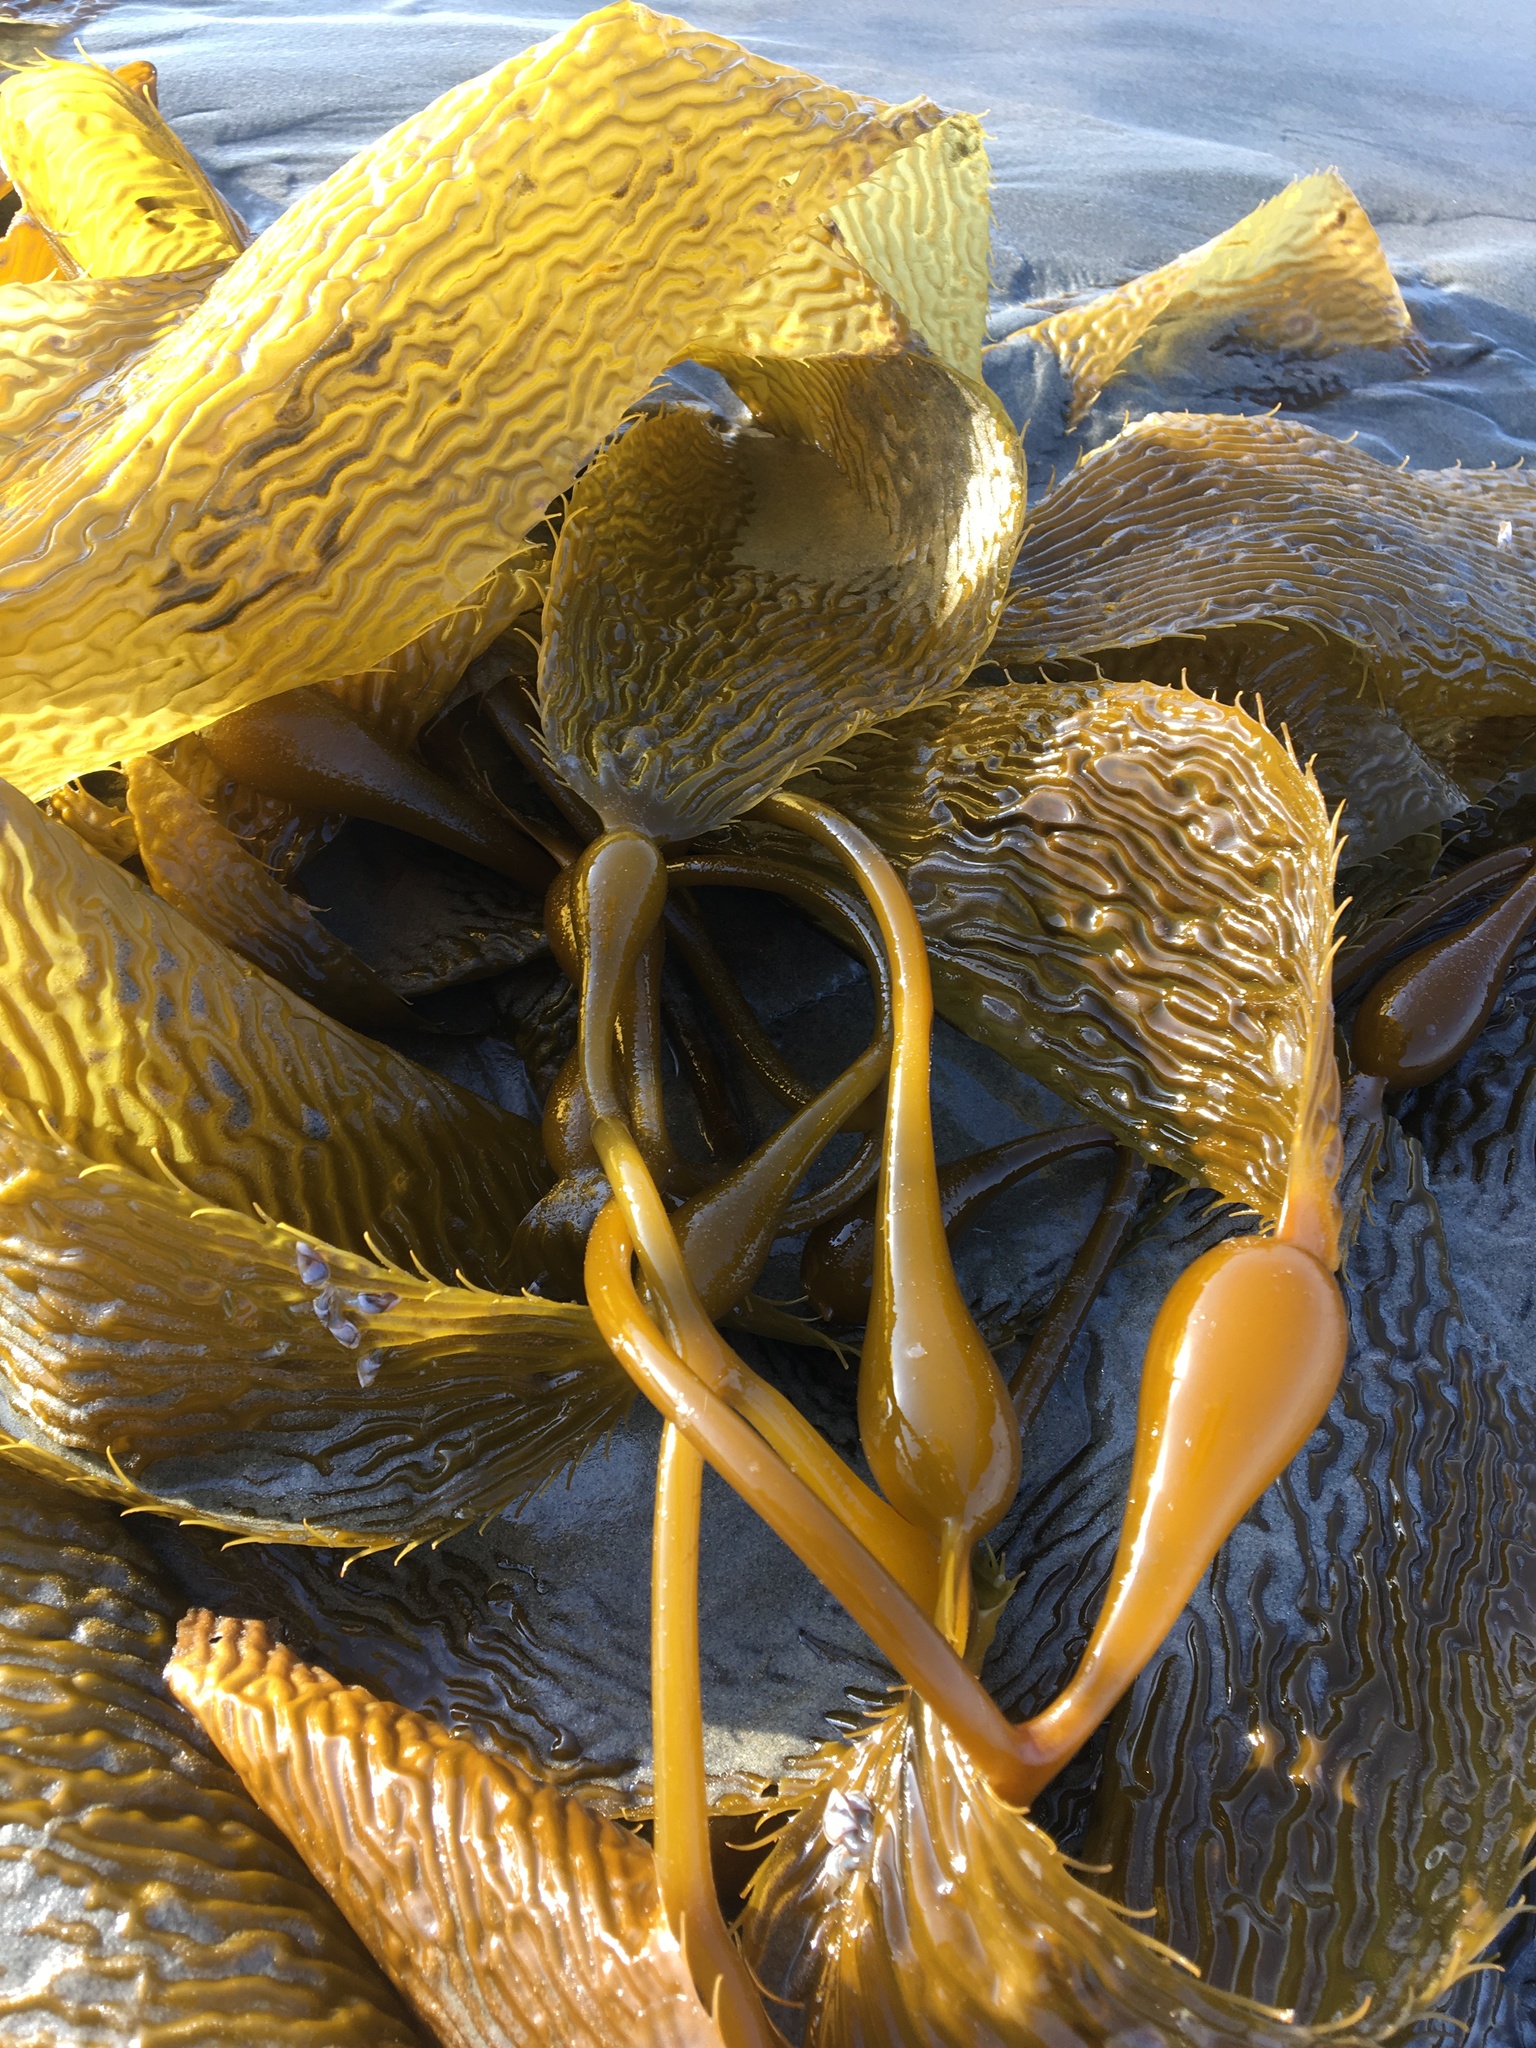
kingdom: Chromista
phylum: Ochrophyta
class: Phaeophyceae
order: Laminariales
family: Laminariaceae
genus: Macrocystis
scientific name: Macrocystis pyrifera
